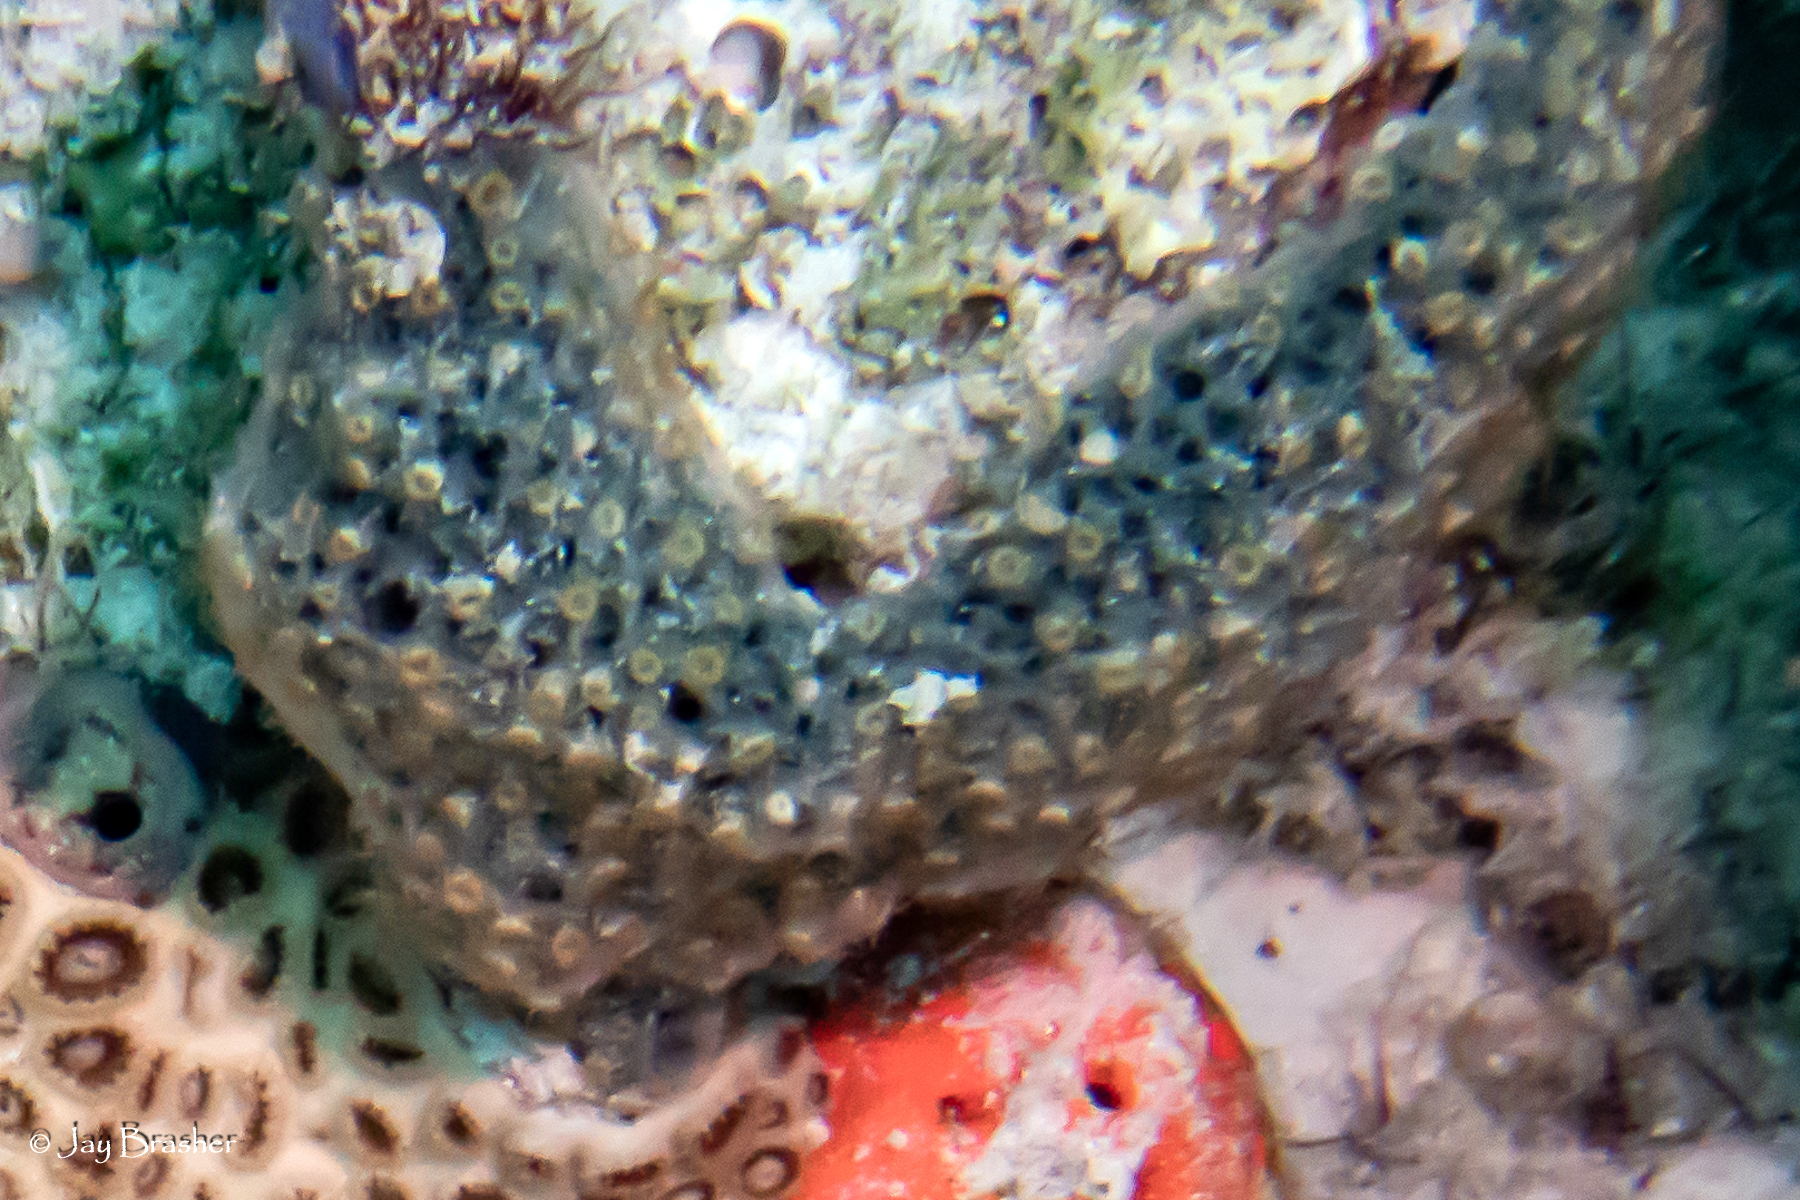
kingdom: Animalia
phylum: Cnidaria
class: Anthozoa
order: Zoantharia
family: Parazoanthidae
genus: Umimayanthus
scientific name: Umimayanthus parasiticus
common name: Sponge zoanthid
